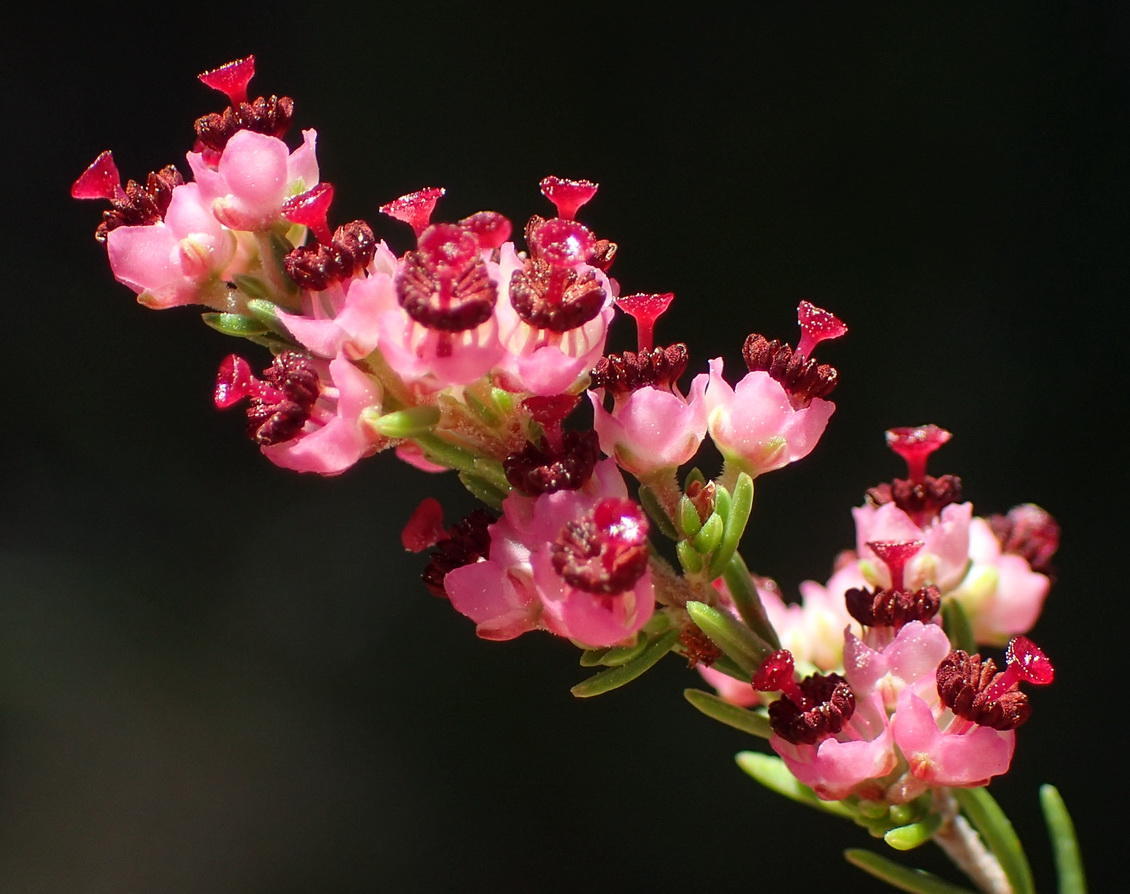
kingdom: Plantae
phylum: Tracheophyta
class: Magnoliopsida
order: Ericales
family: Ericaceae
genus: Erica
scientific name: Erica peltata
